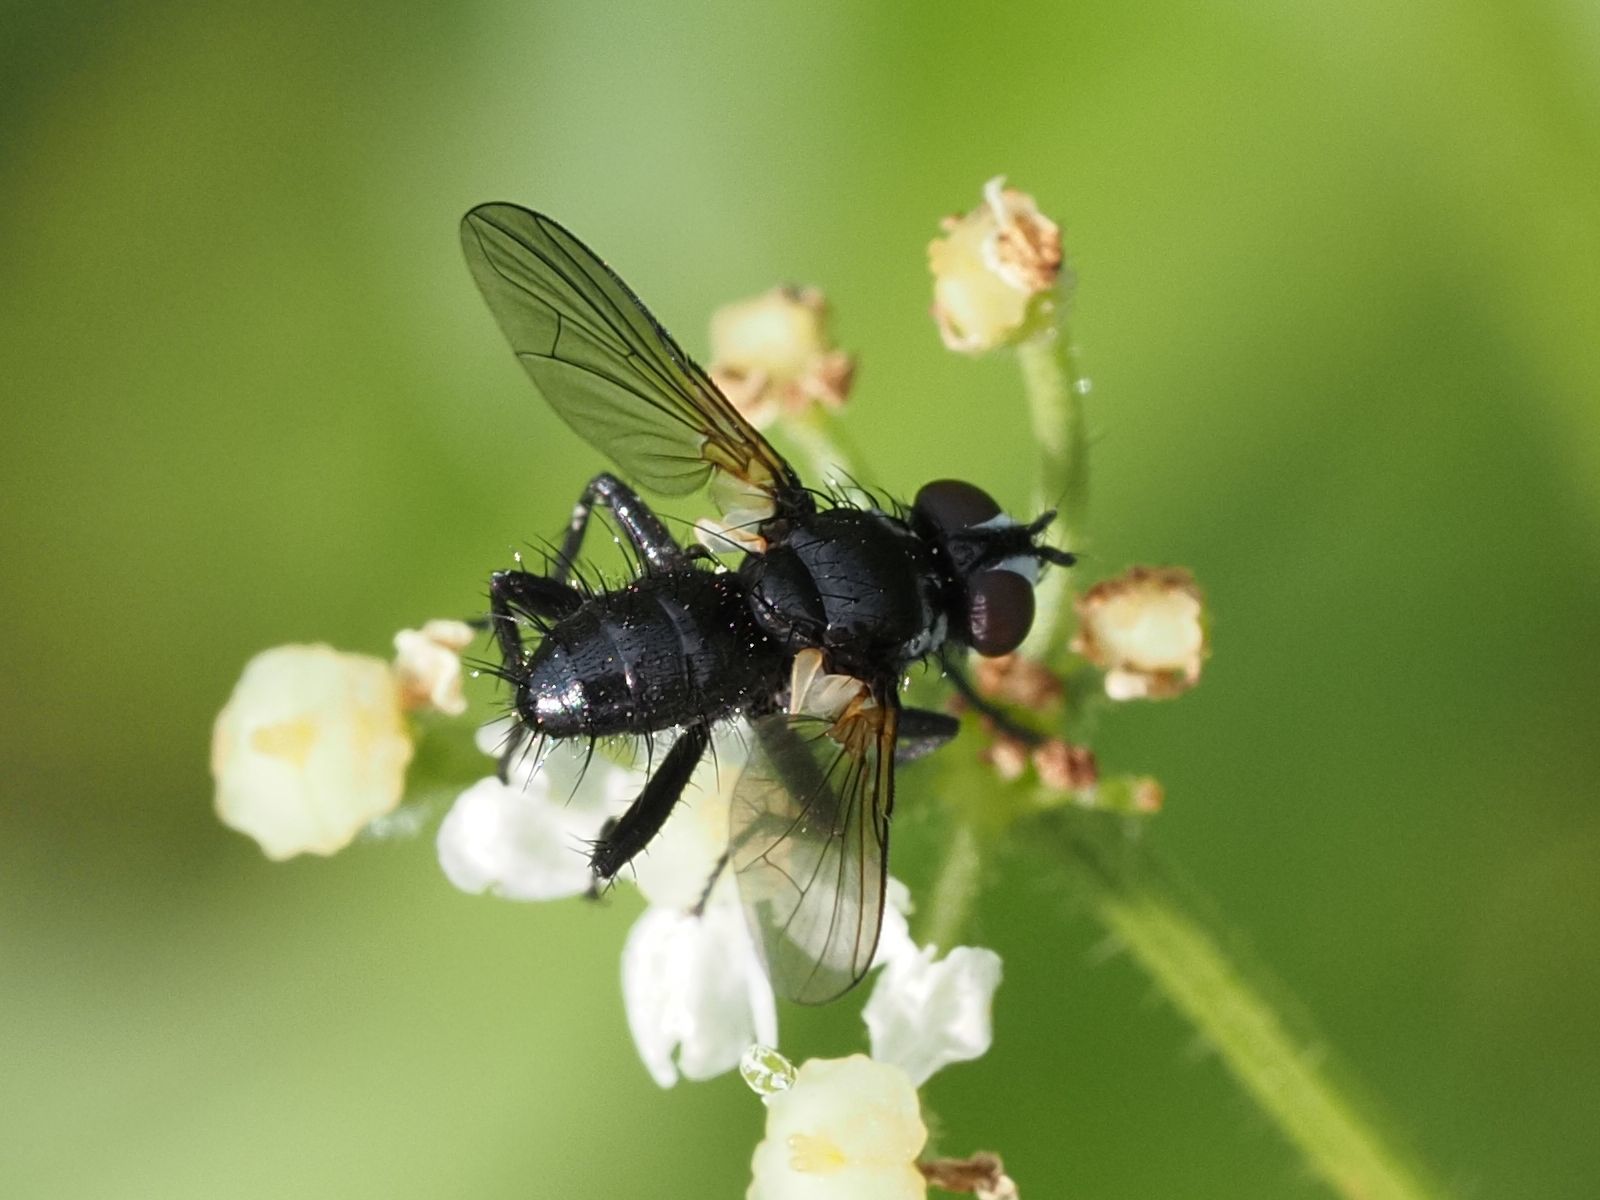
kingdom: Animalia
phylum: Arthropoda
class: Insecta
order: Diptera
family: Tachinidae
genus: Phania
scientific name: Phania funesta
